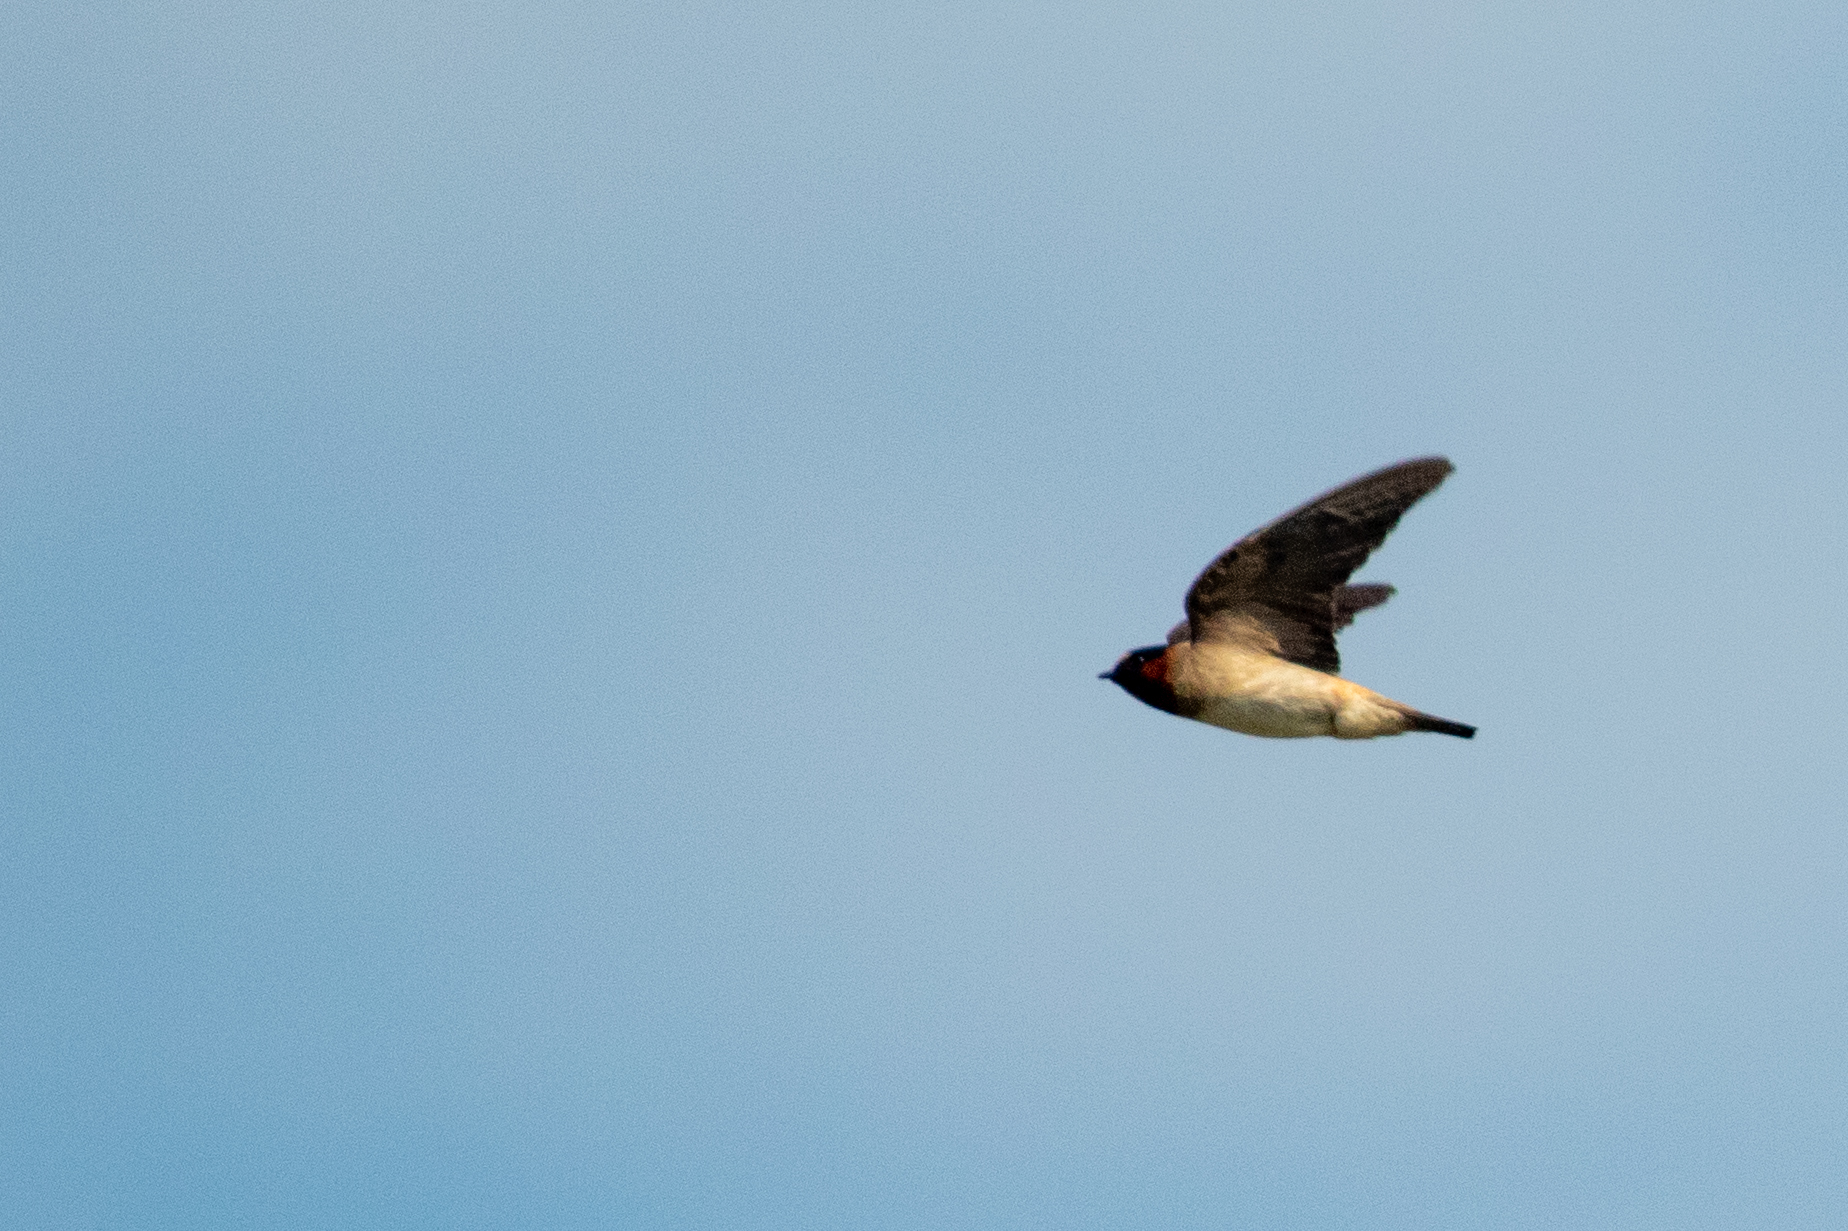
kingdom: Animalia
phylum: Chordata
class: Aves
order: Passeriformes
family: Hirundinidae
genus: Petrochelidon
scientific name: Petrochelidon pyrrhonota
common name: American cliff swallow
